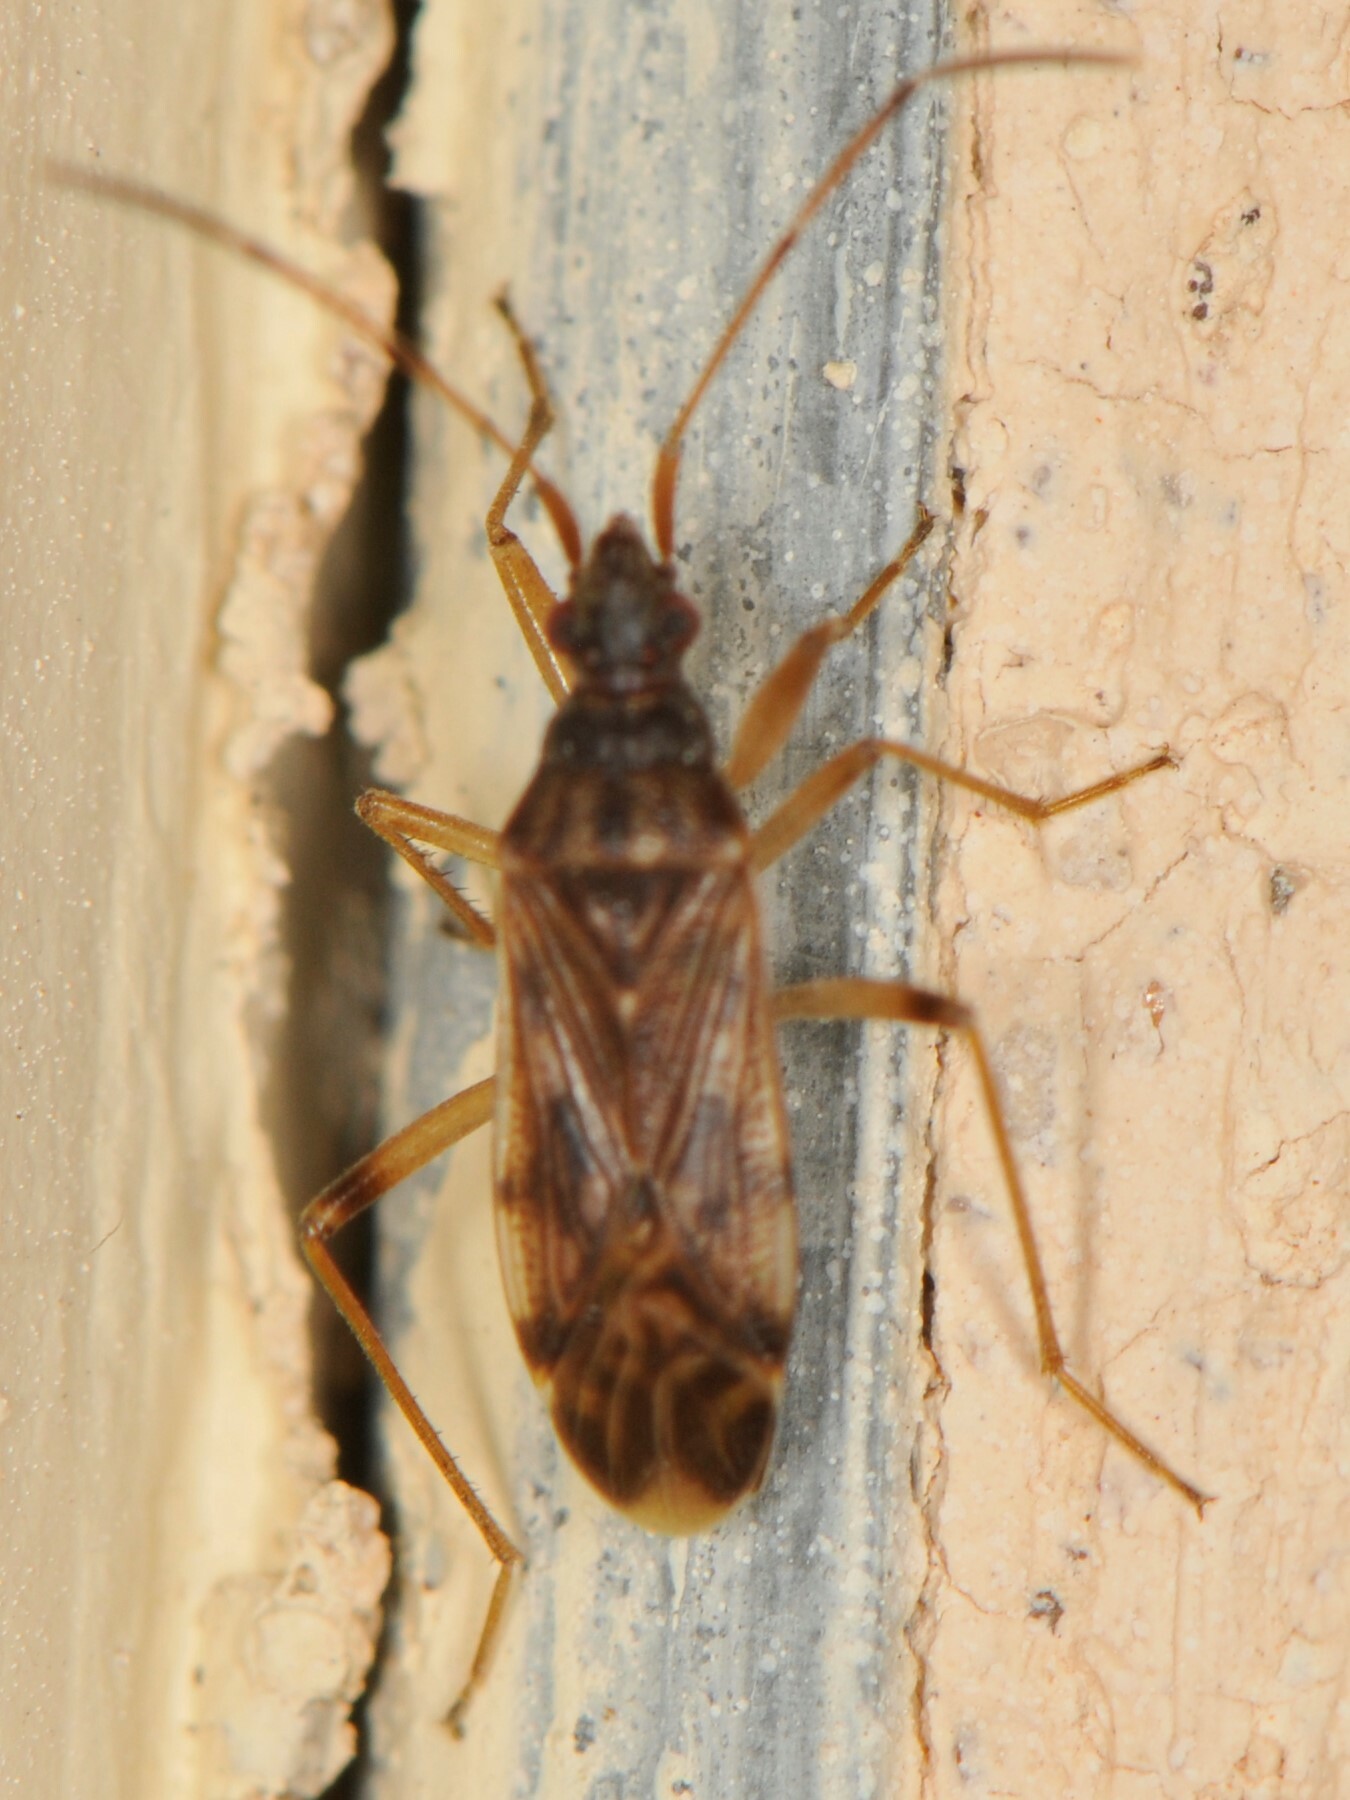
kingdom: Animalia
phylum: Arthropoda
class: Insecta
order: Hemiptera
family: Rhyparochromidae
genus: Ozophora
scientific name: Ozophora salsaverdeae
